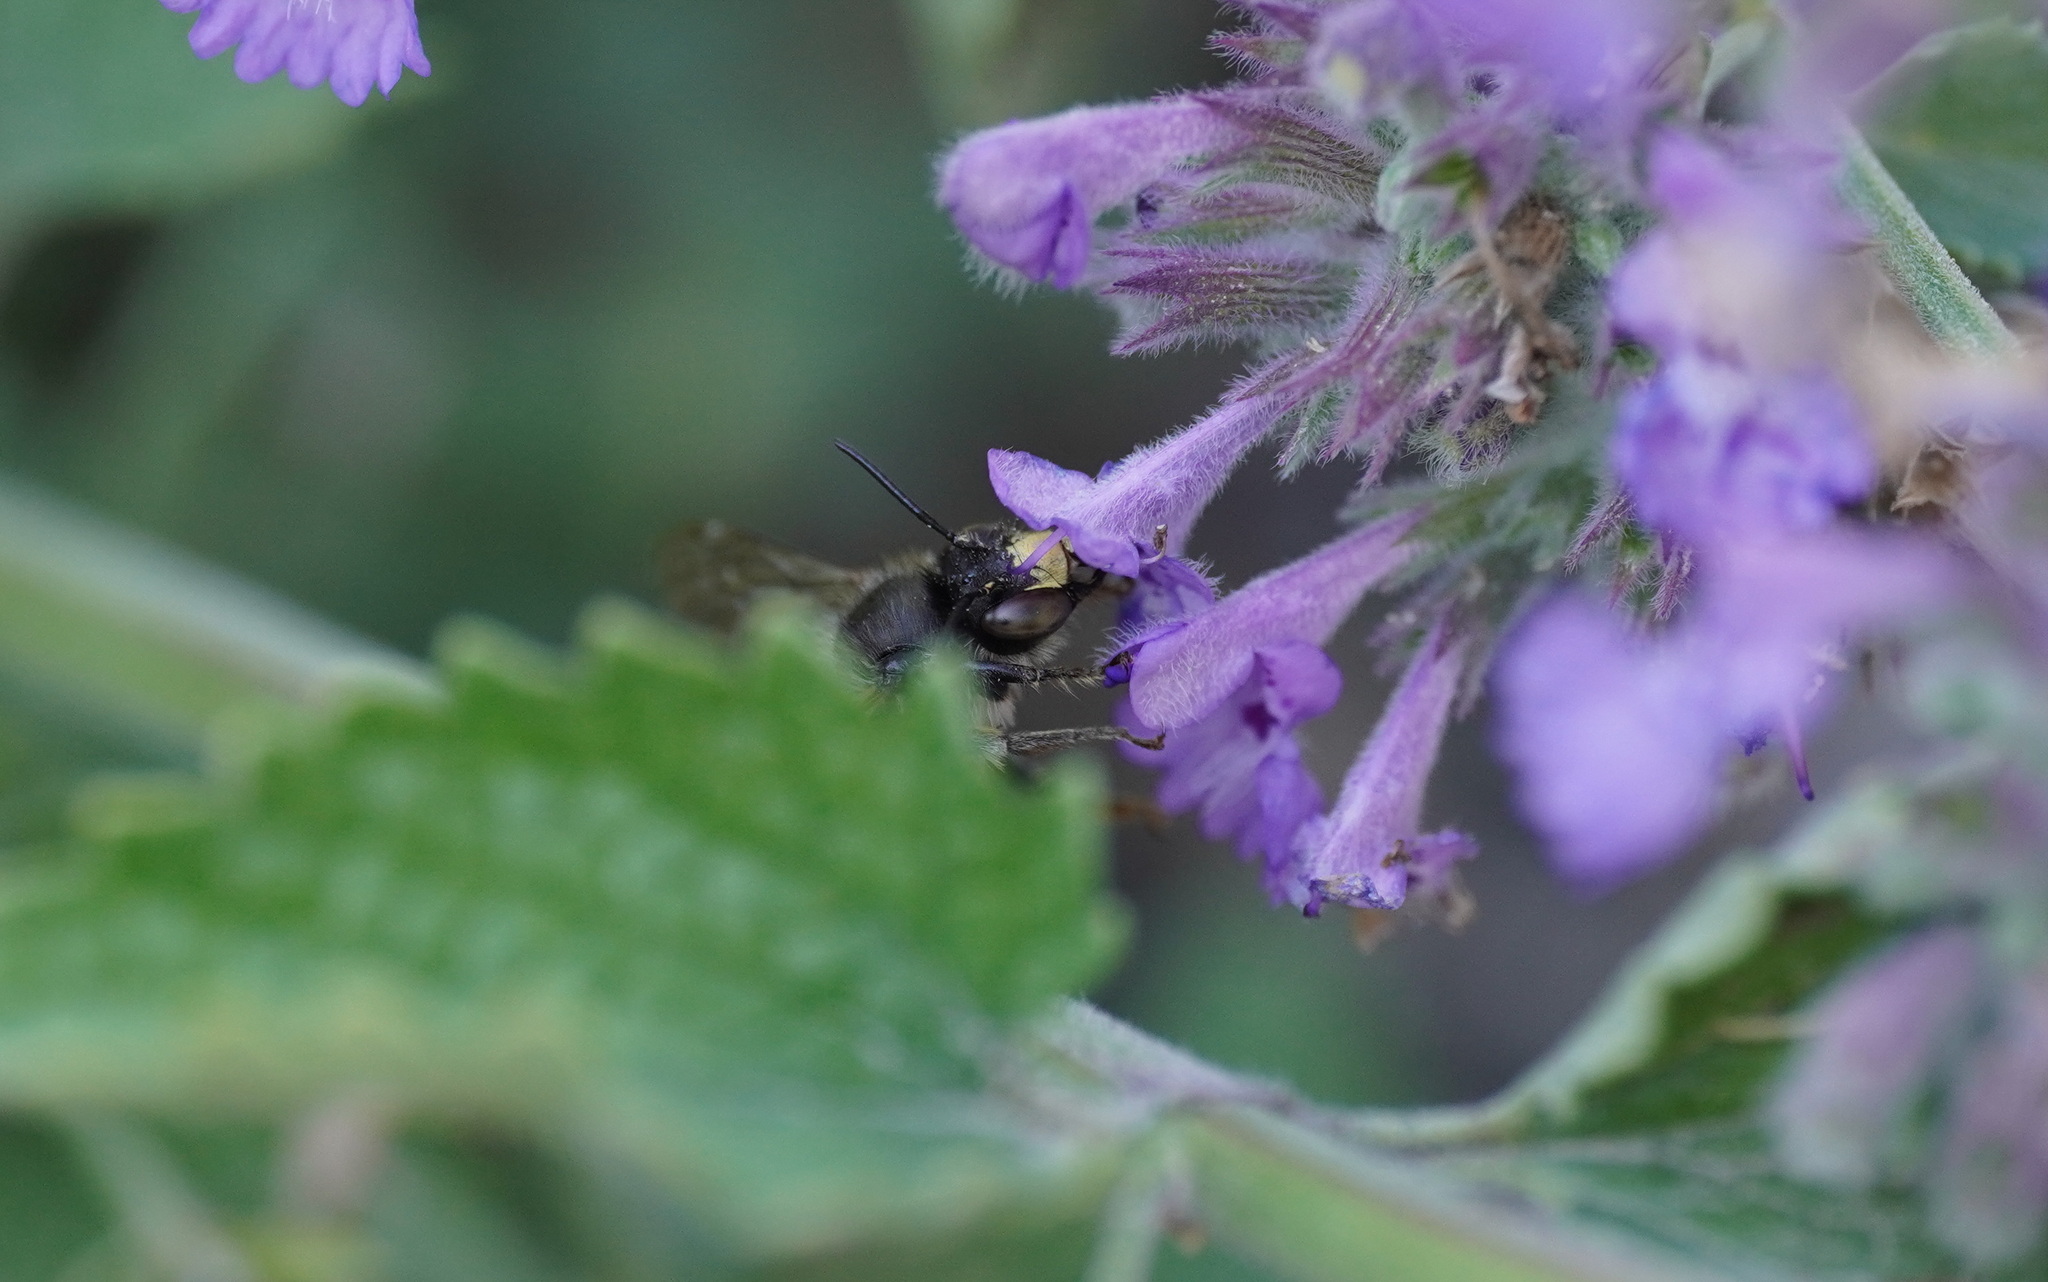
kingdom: Animalia
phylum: Arthropoda
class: Insecta
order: Hymenoptera
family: Apidae
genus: Anthophora
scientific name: Anthophora furcata
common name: Fork-tailed flower bee
